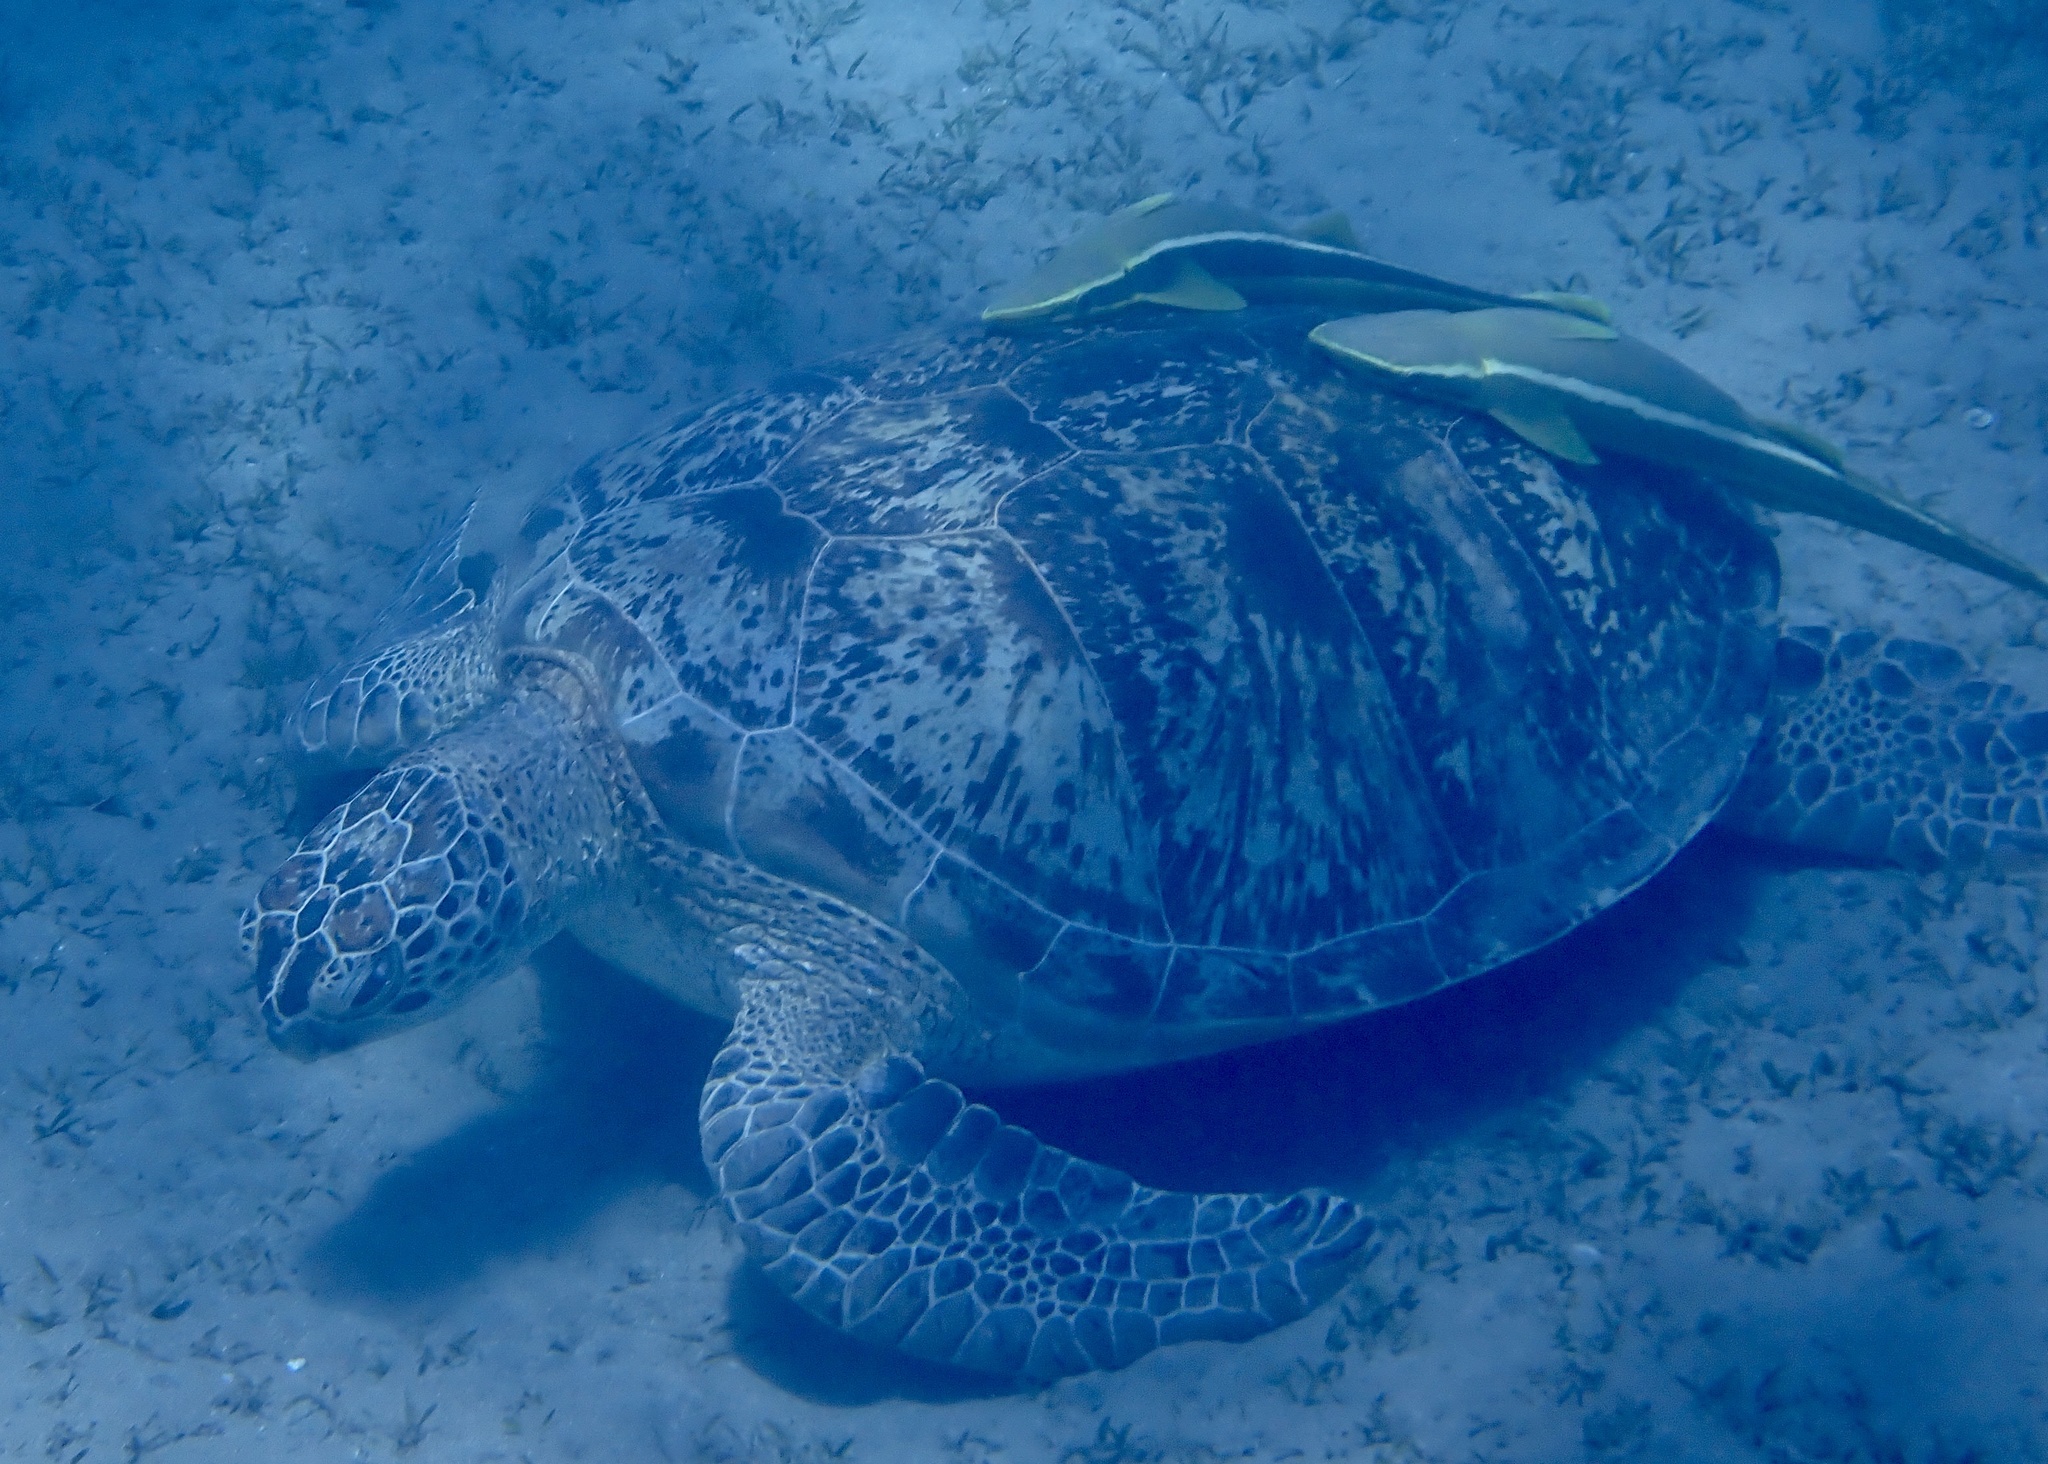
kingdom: Animalia
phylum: Chordata
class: Testudines
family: Cheloniidae
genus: Chelonia
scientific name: Chelonia mydas
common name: Green turtle
